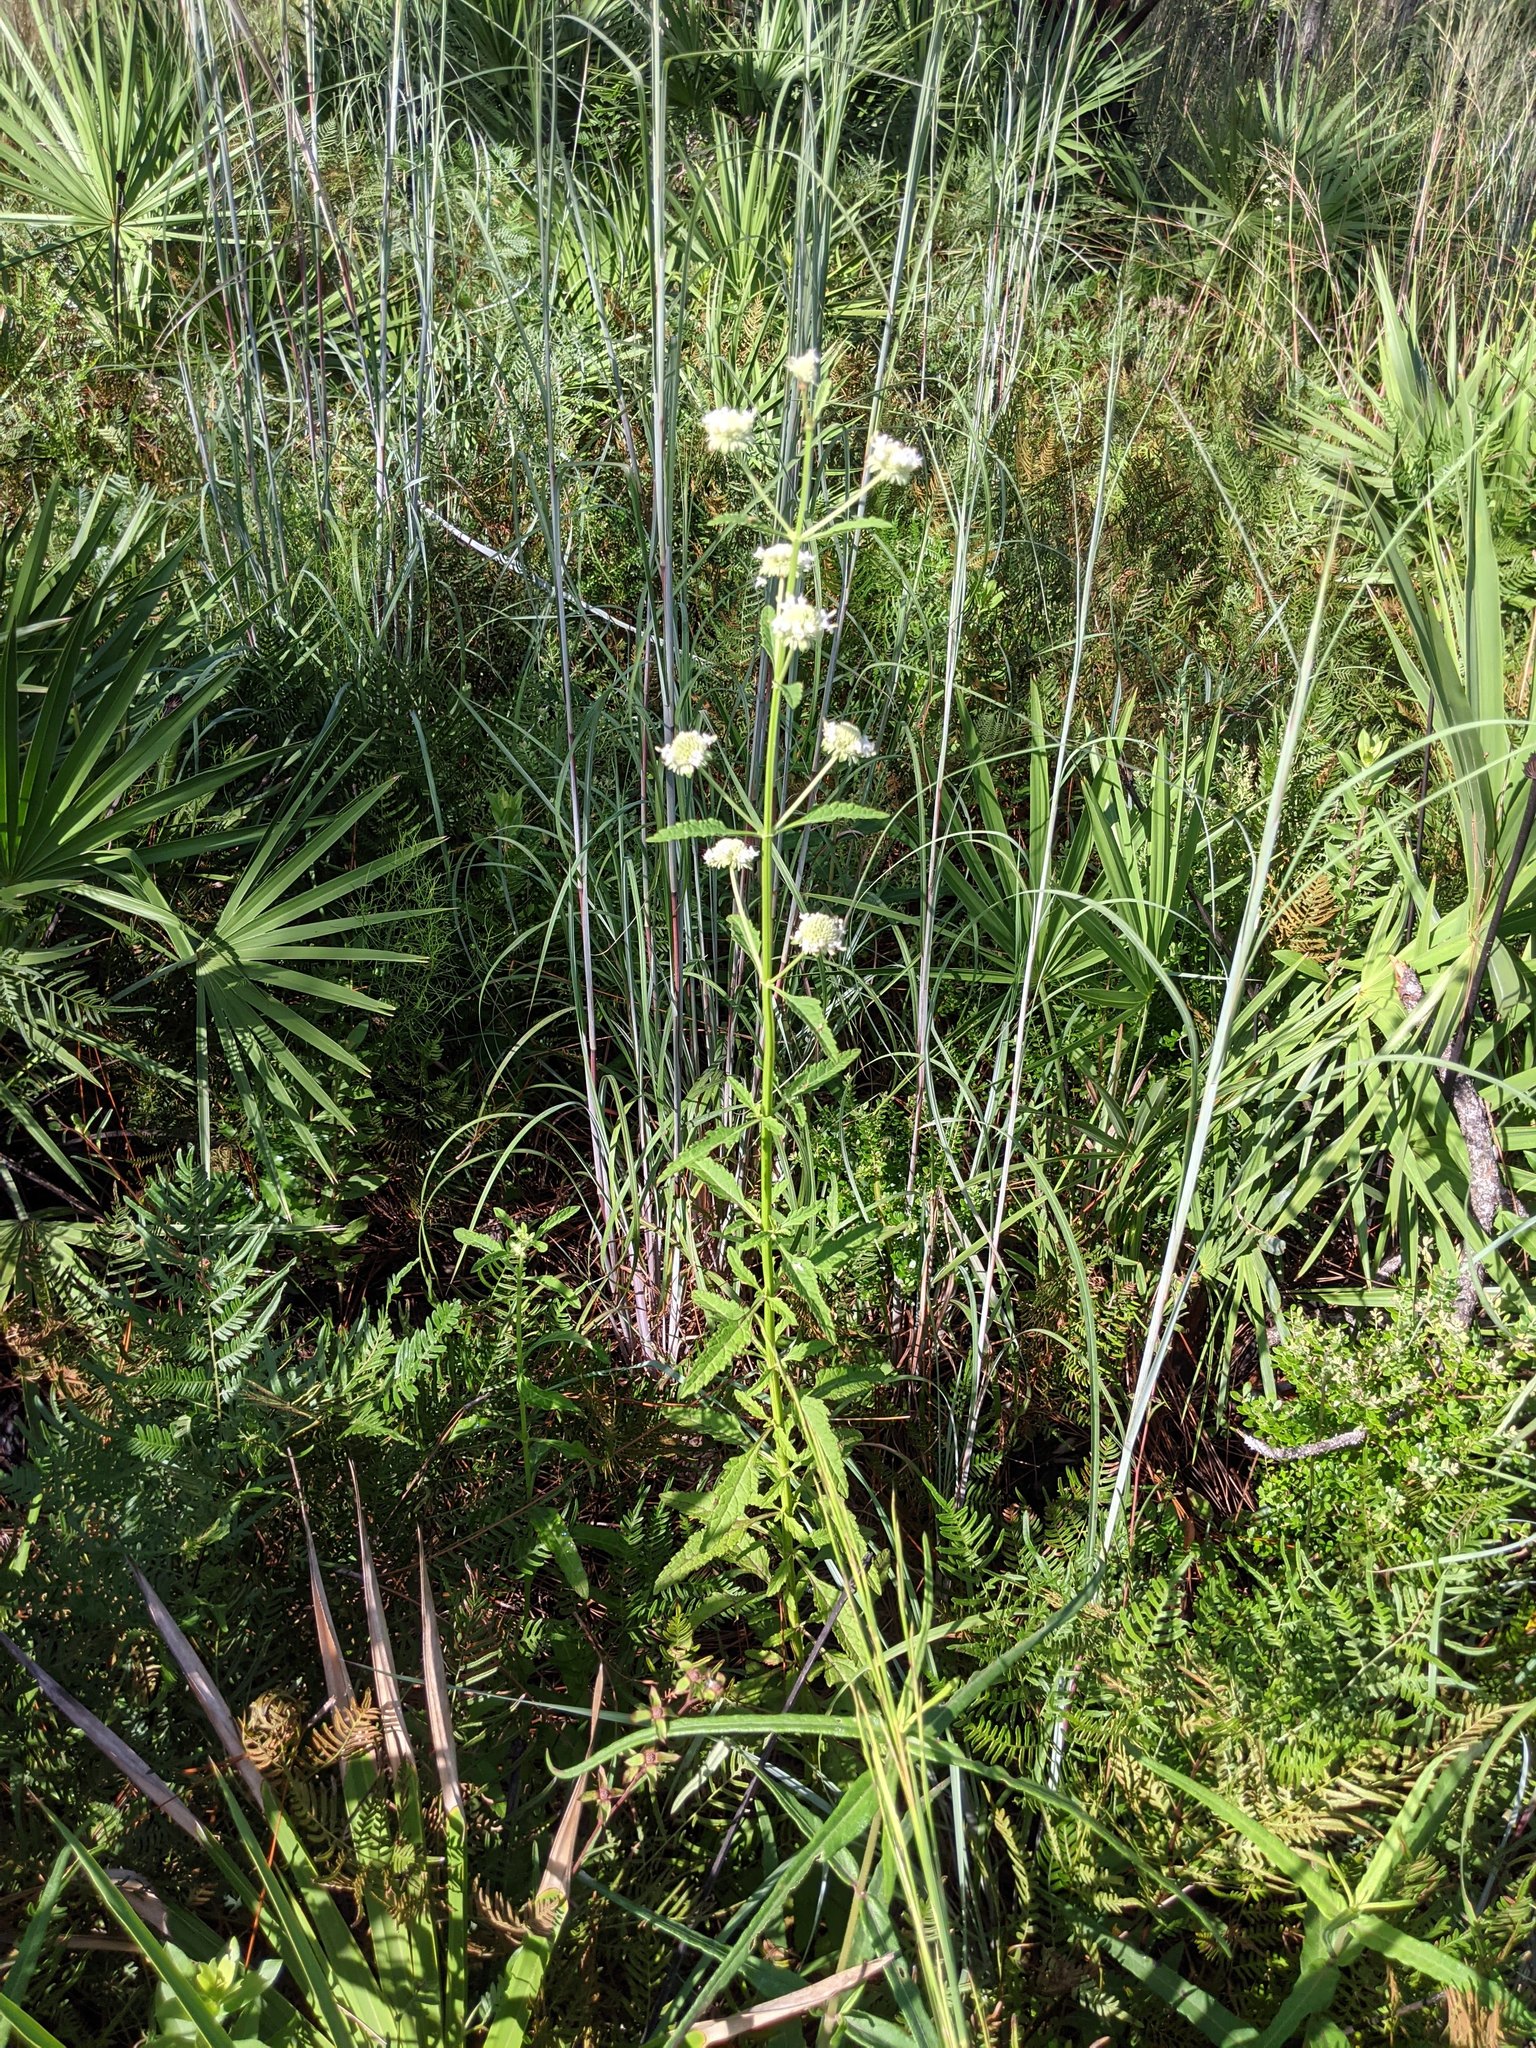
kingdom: Plantae
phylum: Tracheophyta
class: Magnoliopsida
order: Lamiales
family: Lamiaceae
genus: Hyptis
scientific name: Hyptis alata
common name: Cluster bush-mint
